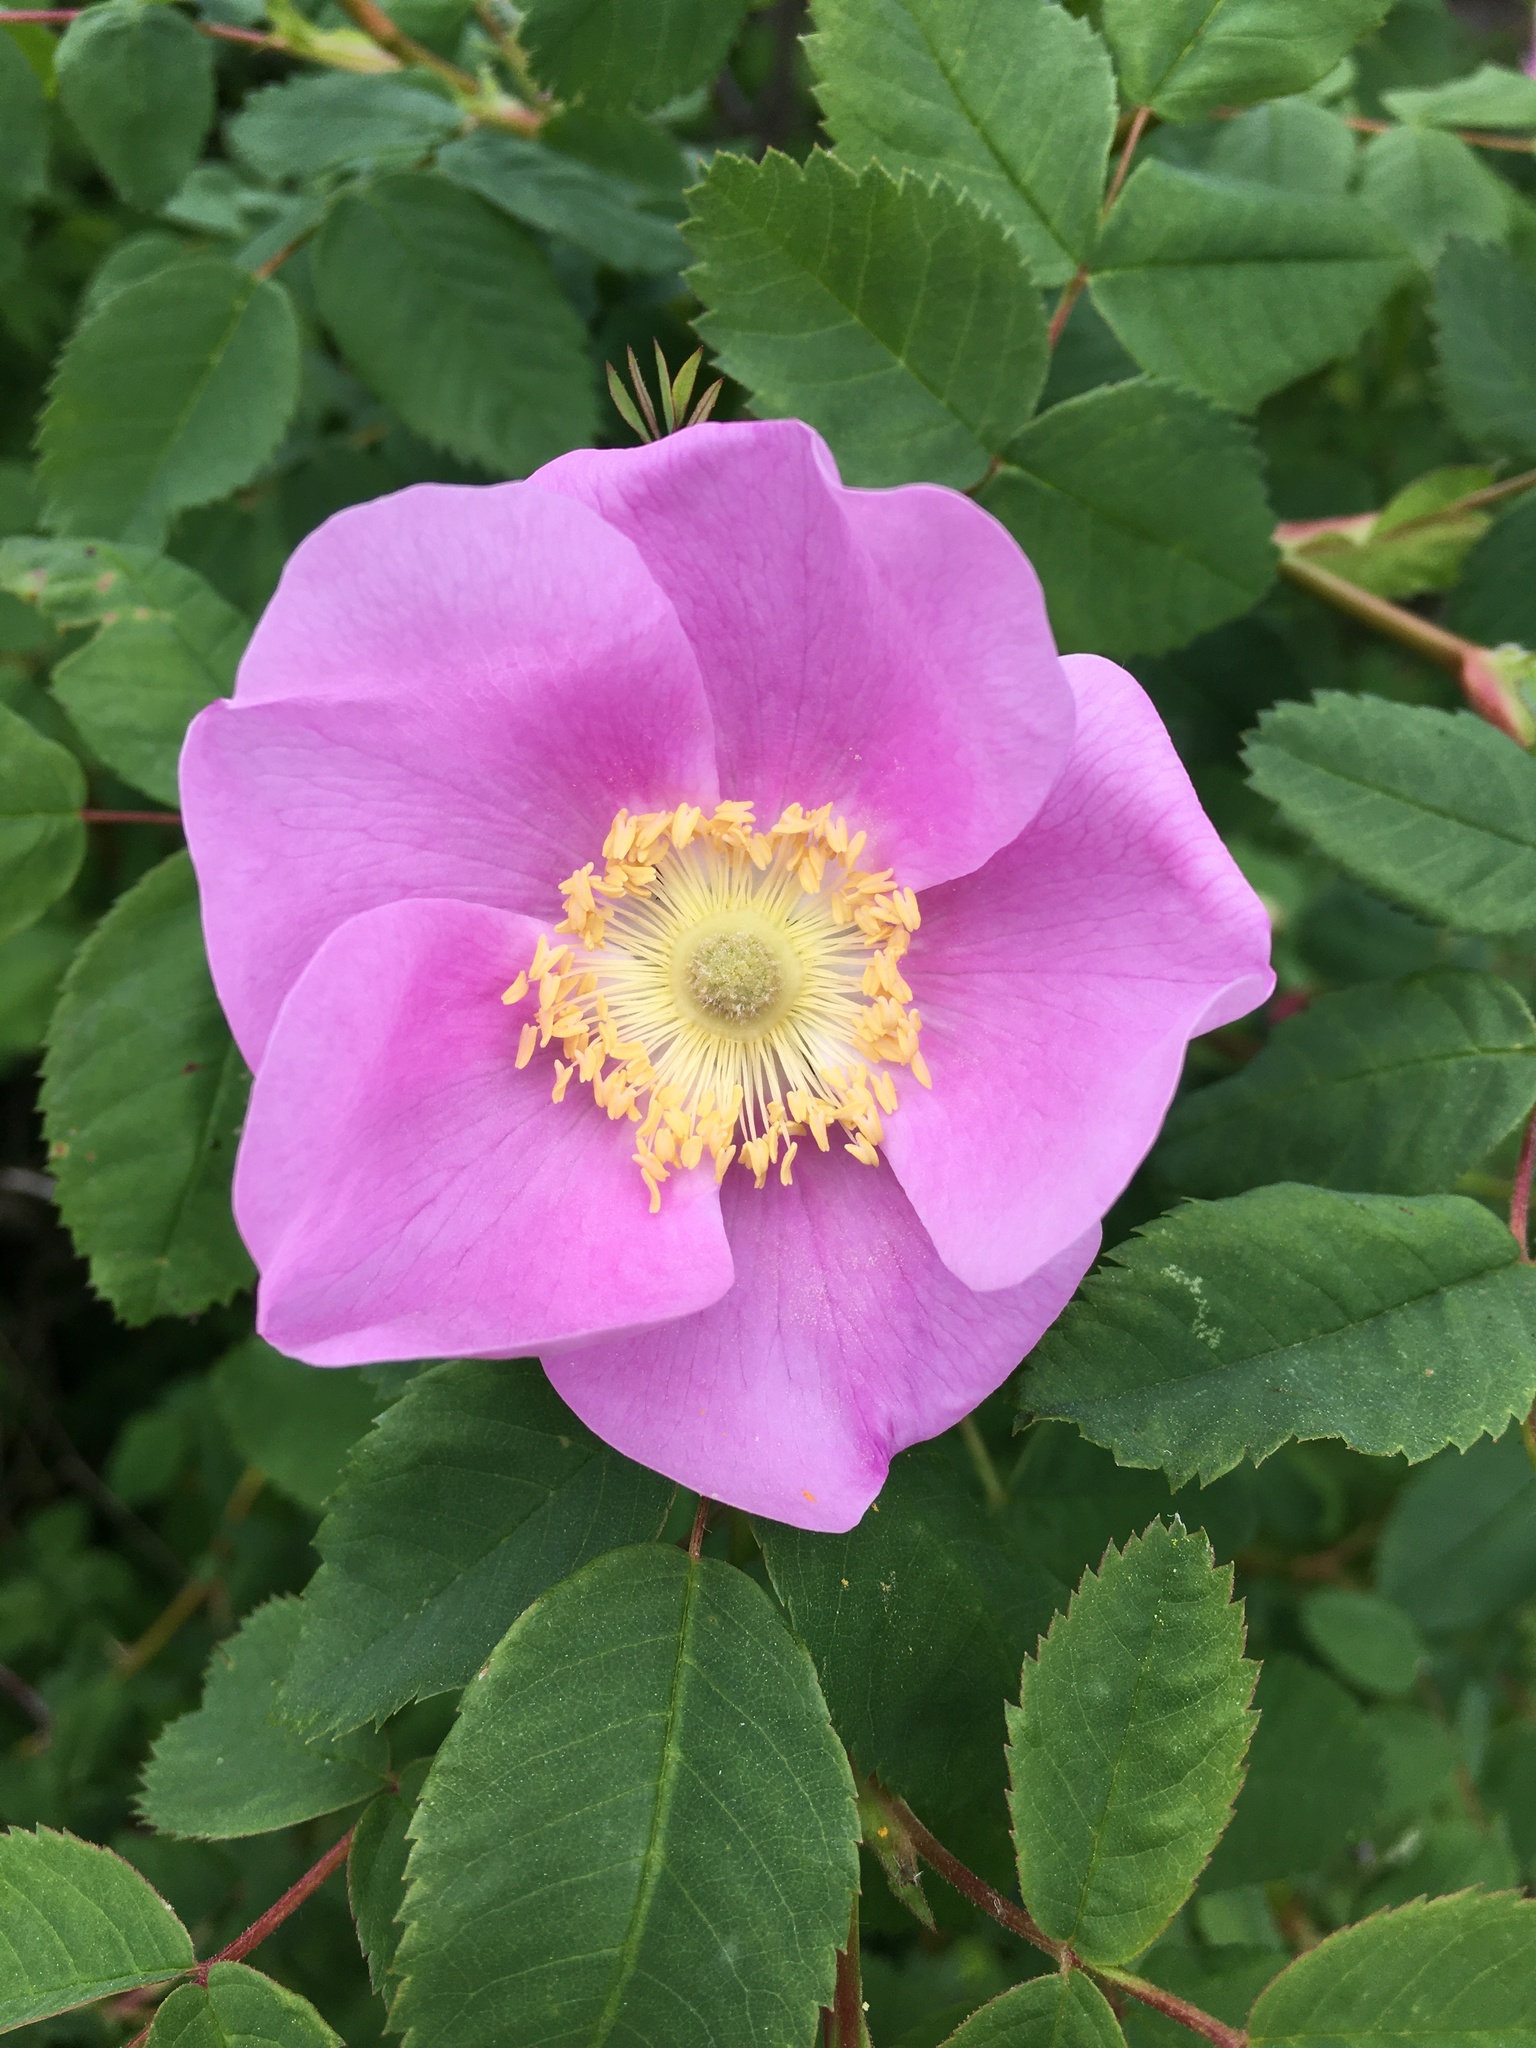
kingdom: Plantae
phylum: Tracheophyta
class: Magnoliopsida
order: Rosales
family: Rosaceae
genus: Rosa
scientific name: Rosa nutkana
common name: Nootka rose
